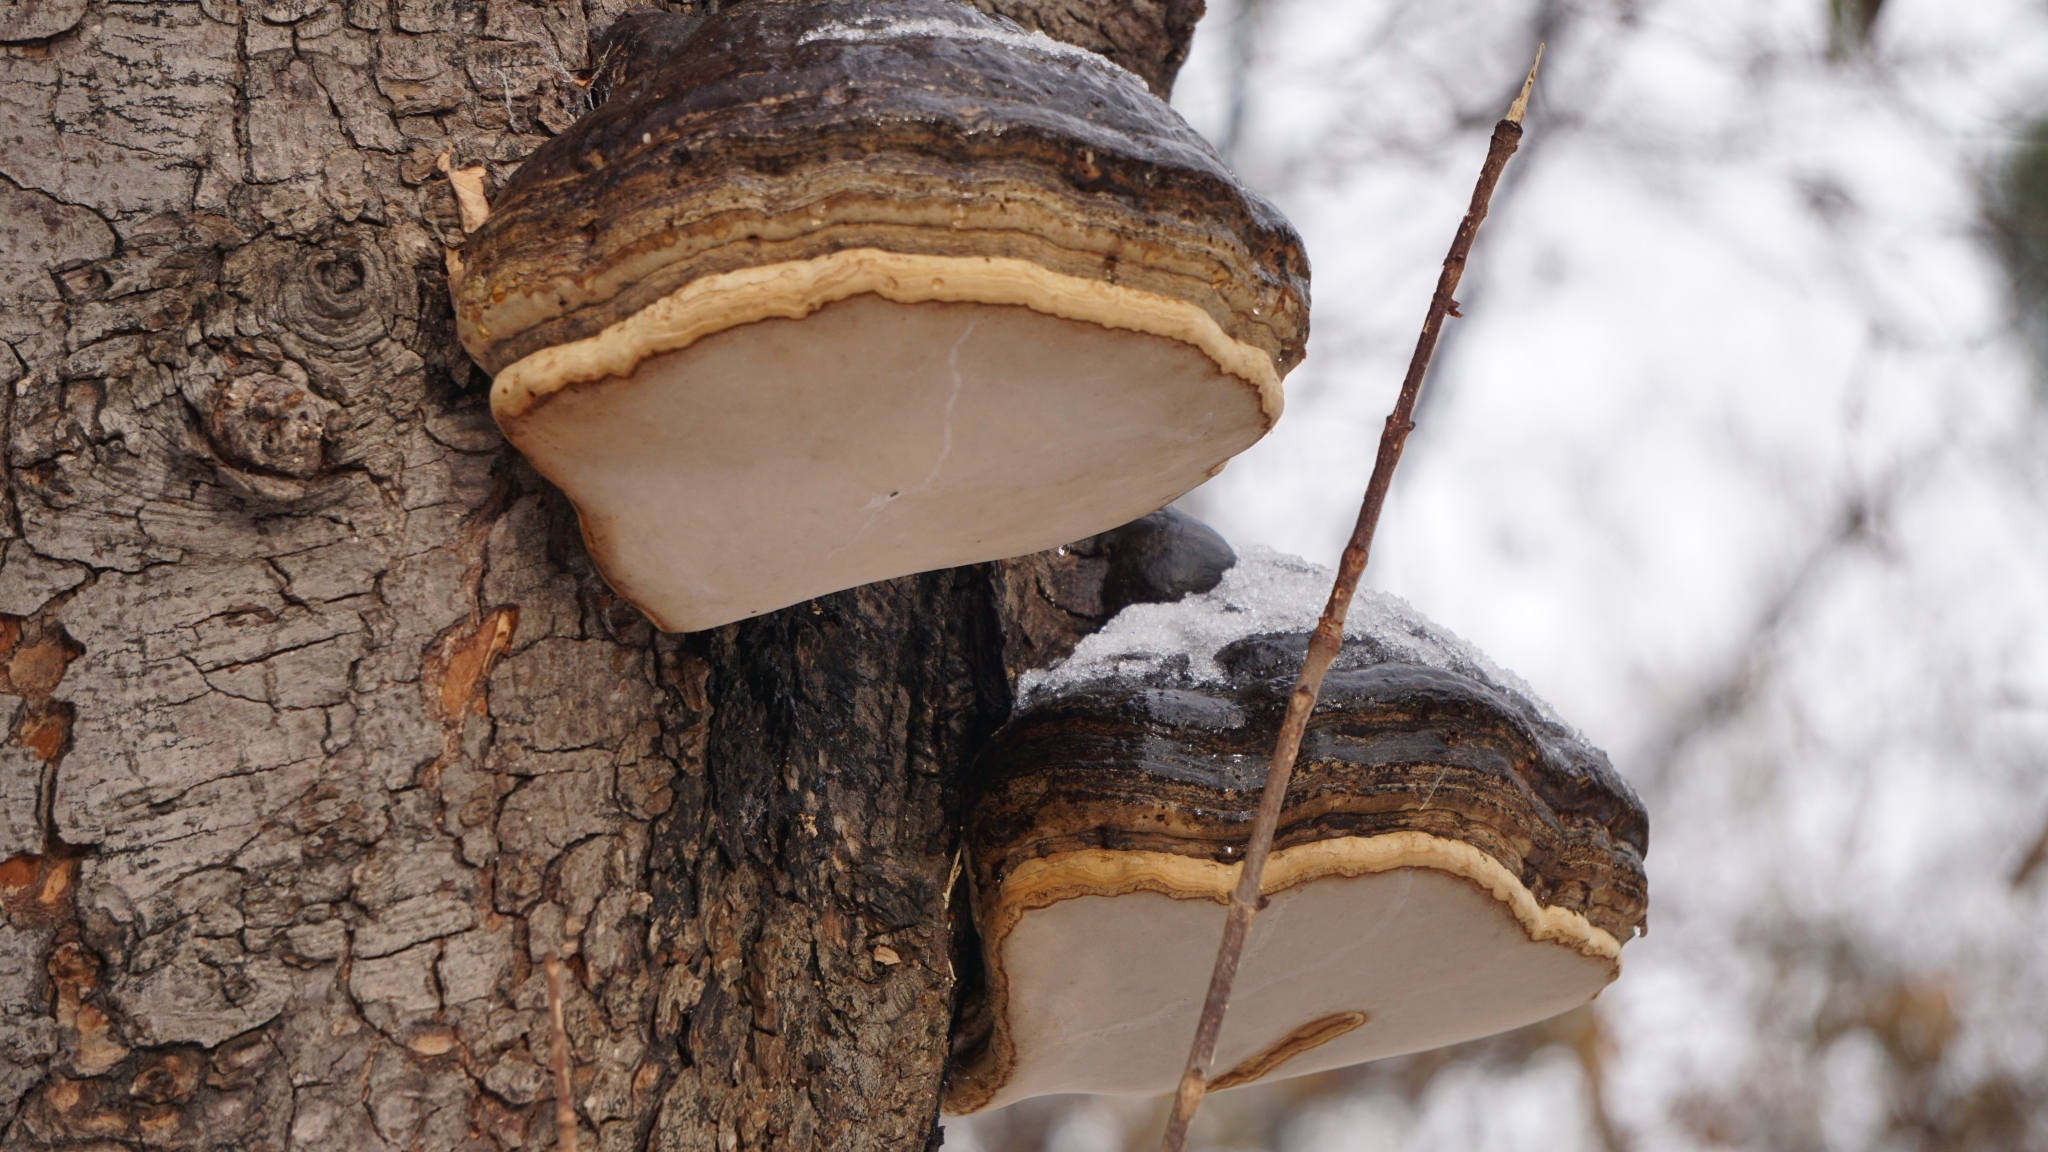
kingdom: Fungi
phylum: Basidiomycota
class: Agaricomycetes
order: Polyporales
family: Polyporaceae
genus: Fomes
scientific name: Fomes fomentarius
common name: Hoof fungus
